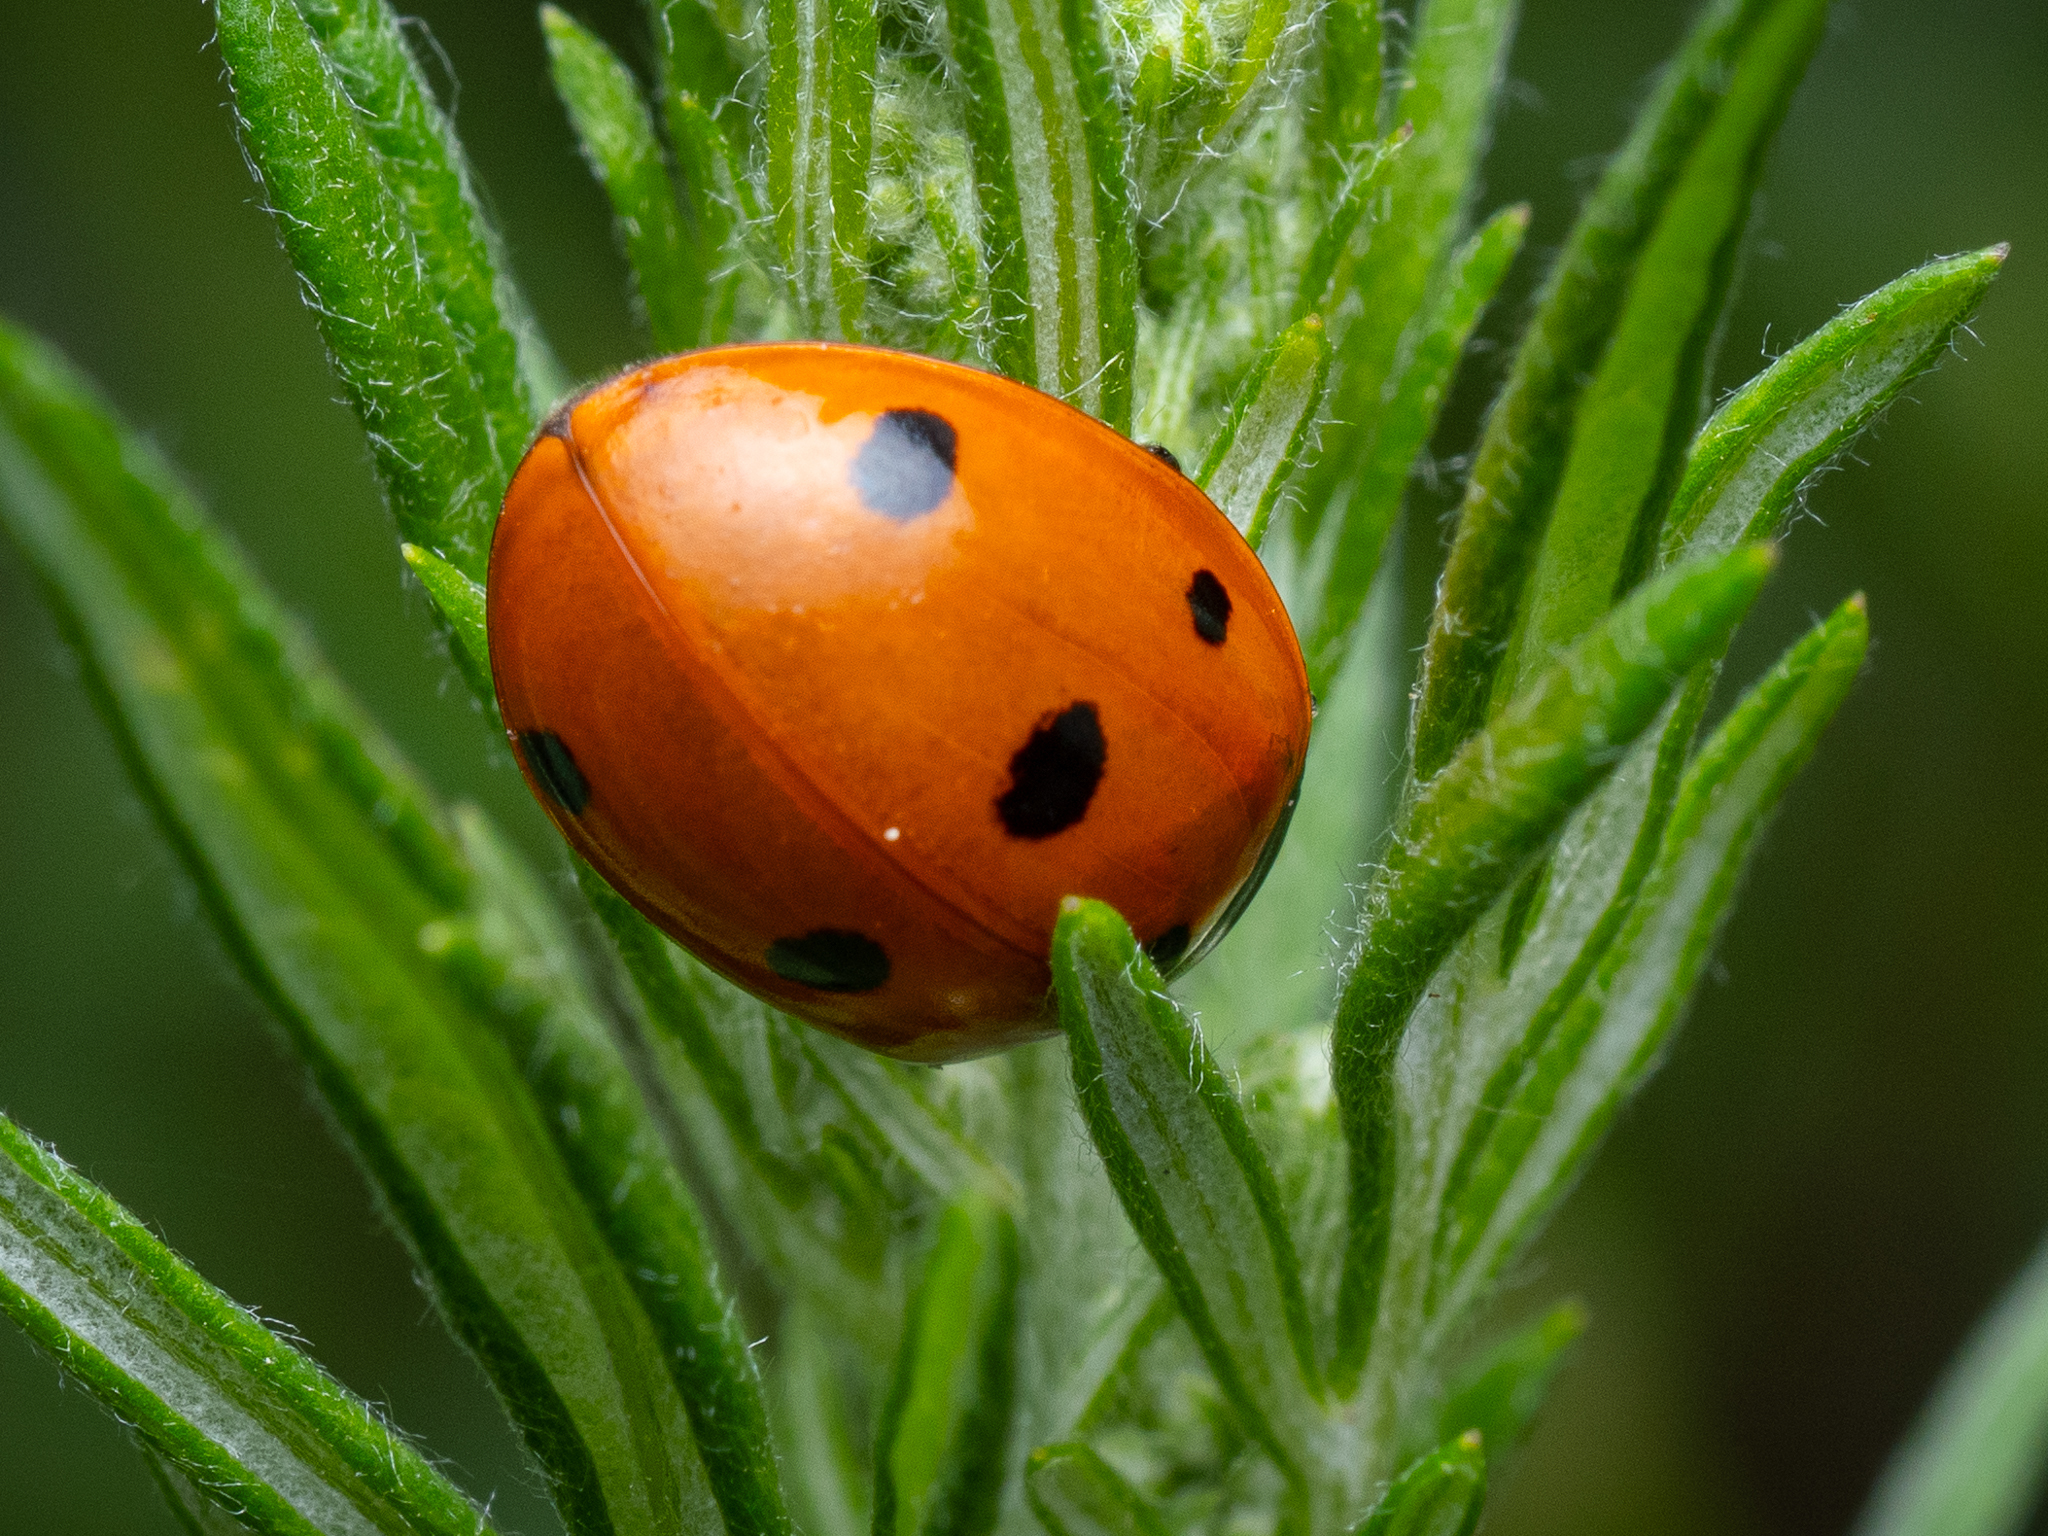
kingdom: Animalia
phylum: Arthropoda
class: Insecta
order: Coleoptera
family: Coccinellidae
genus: Coccinella
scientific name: Coccinella septempunctata
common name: Sevenspotted lady beetle
